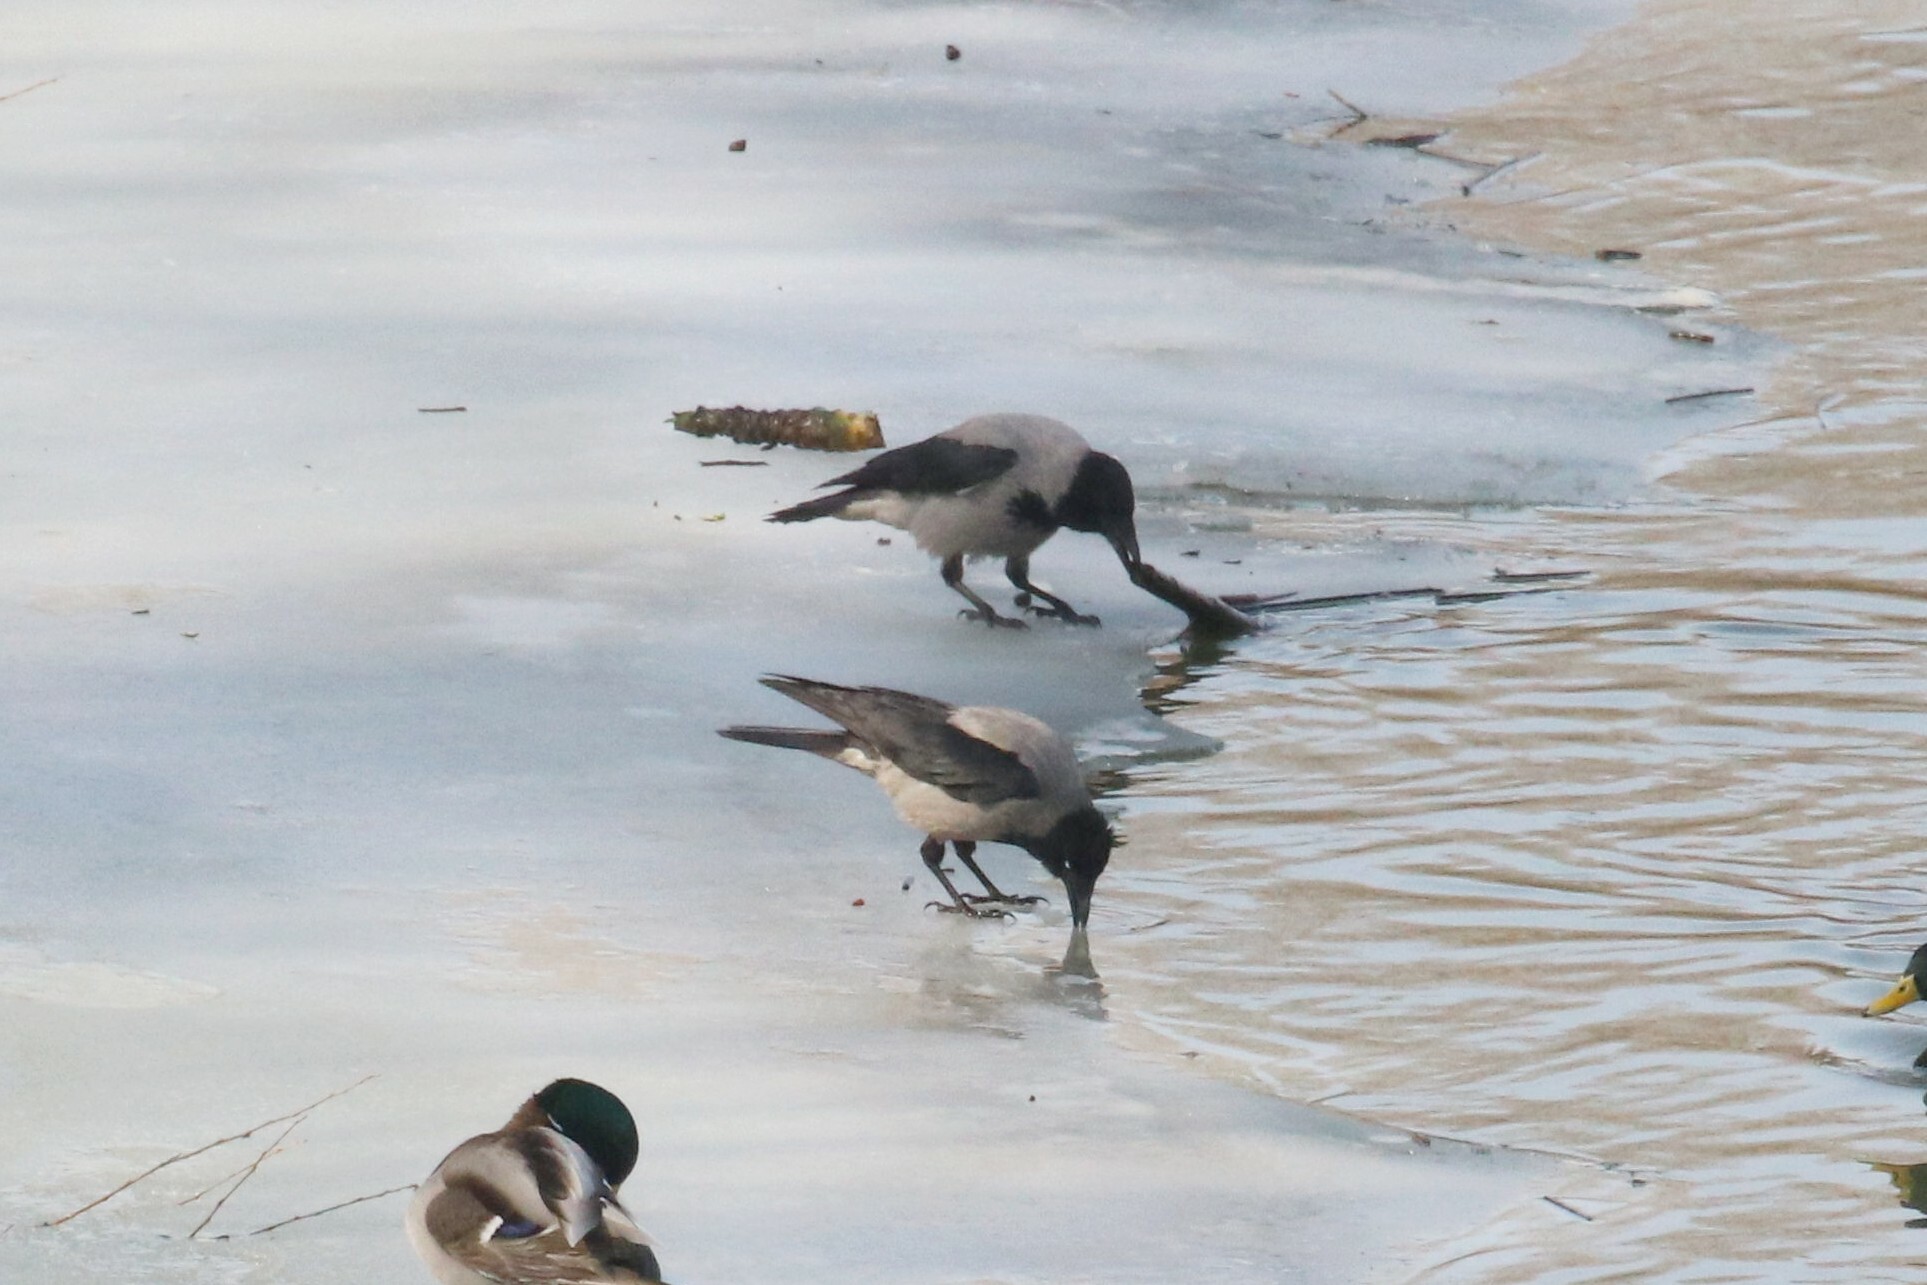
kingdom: Animalia
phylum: Chordata
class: Aves
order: Passeriformes
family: Corvidae
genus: Corvus
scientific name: Corvus cornix
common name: Hooded crow
